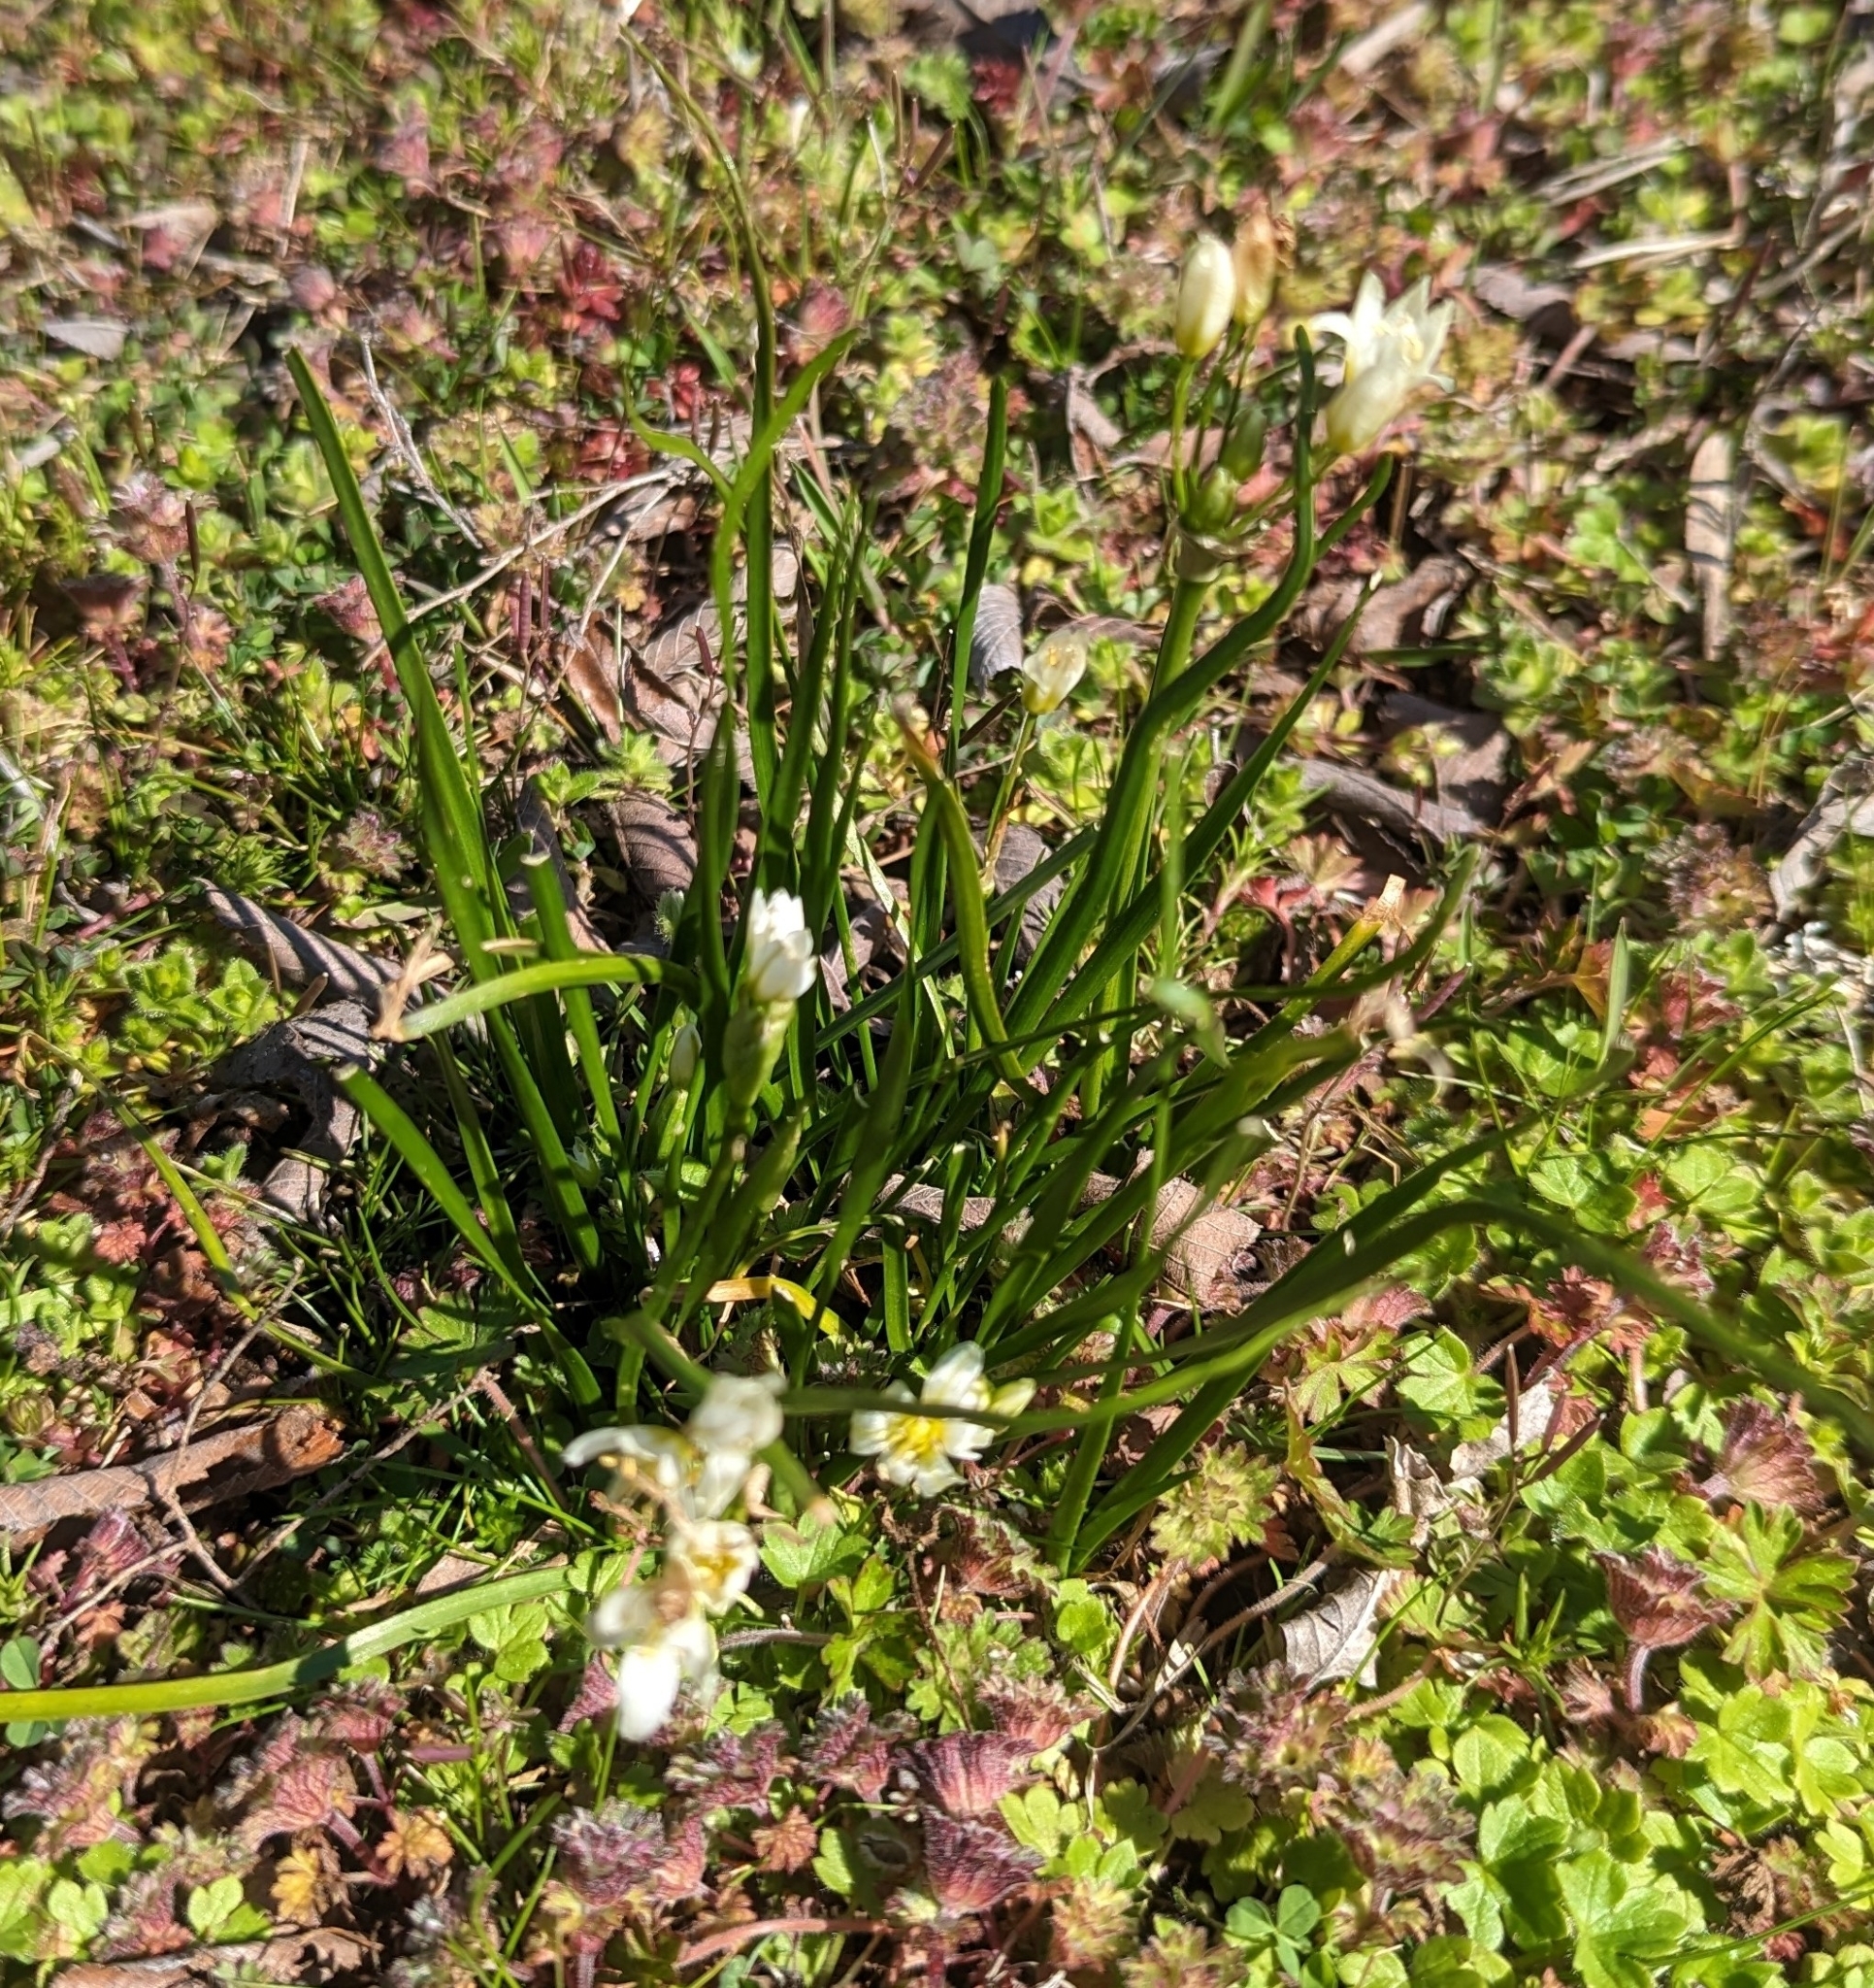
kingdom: Plantae
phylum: Tracheophyta
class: Liliopsida
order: Asparagales
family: Amaryllidaceae
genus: Nothoscordum
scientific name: Nothoscordum bivalve
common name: Crow-poison
